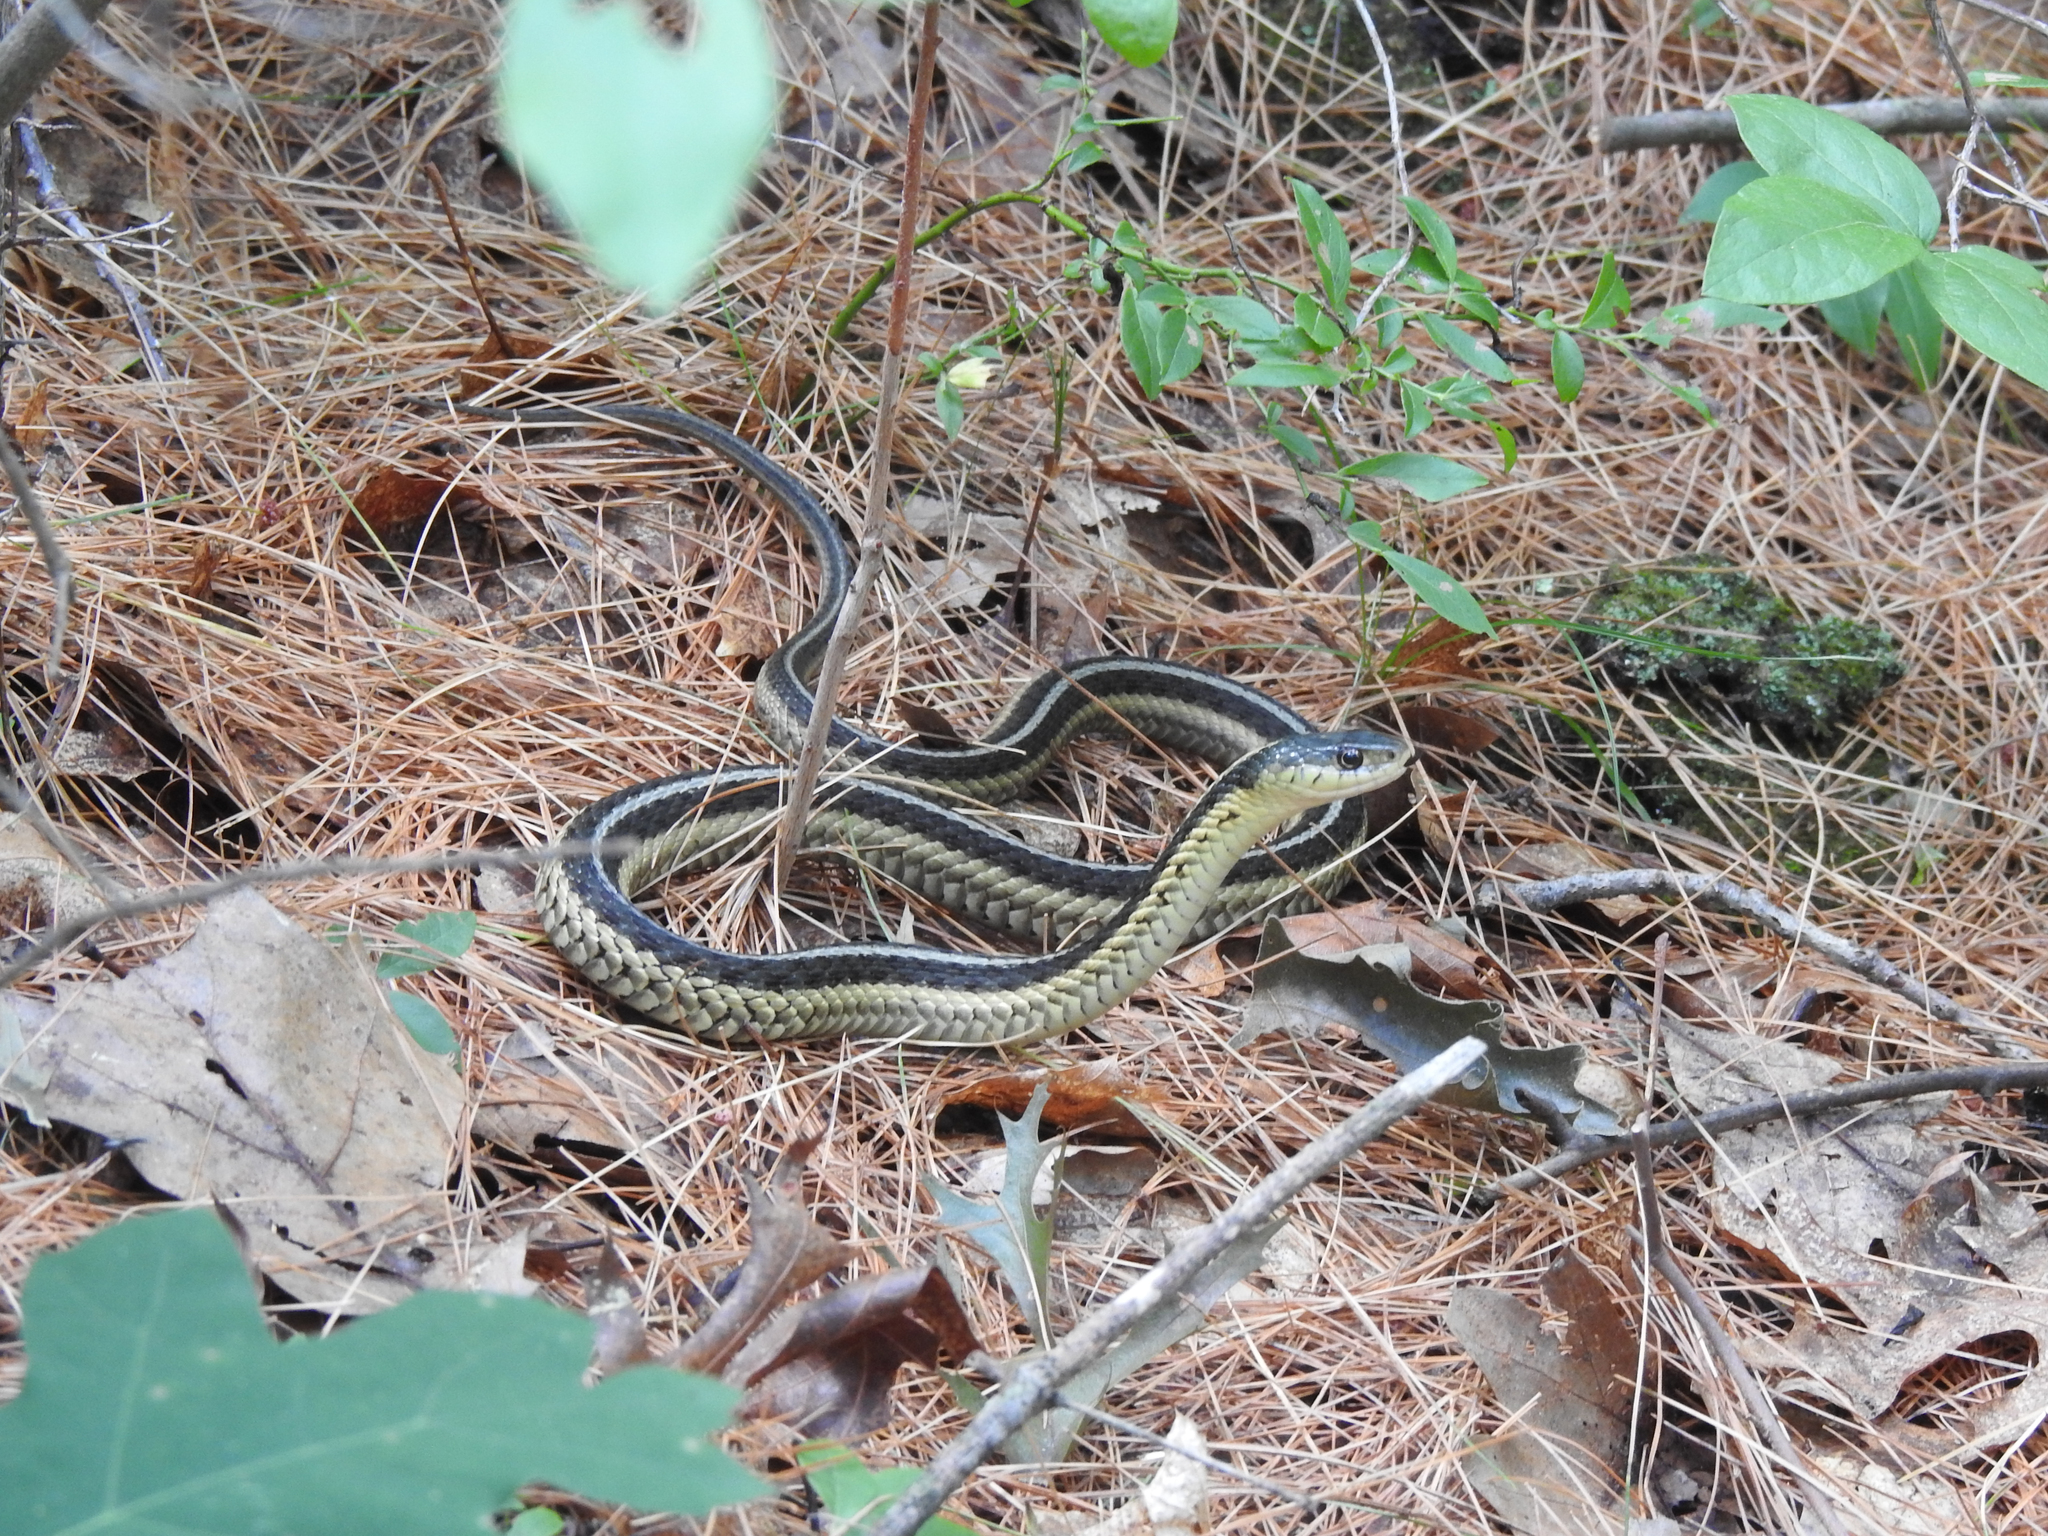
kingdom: Animalia
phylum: Chordata
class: Squamata
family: Colubridae
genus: Thamnophis
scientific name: Thamnophis sirtalis
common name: Common garter snake
